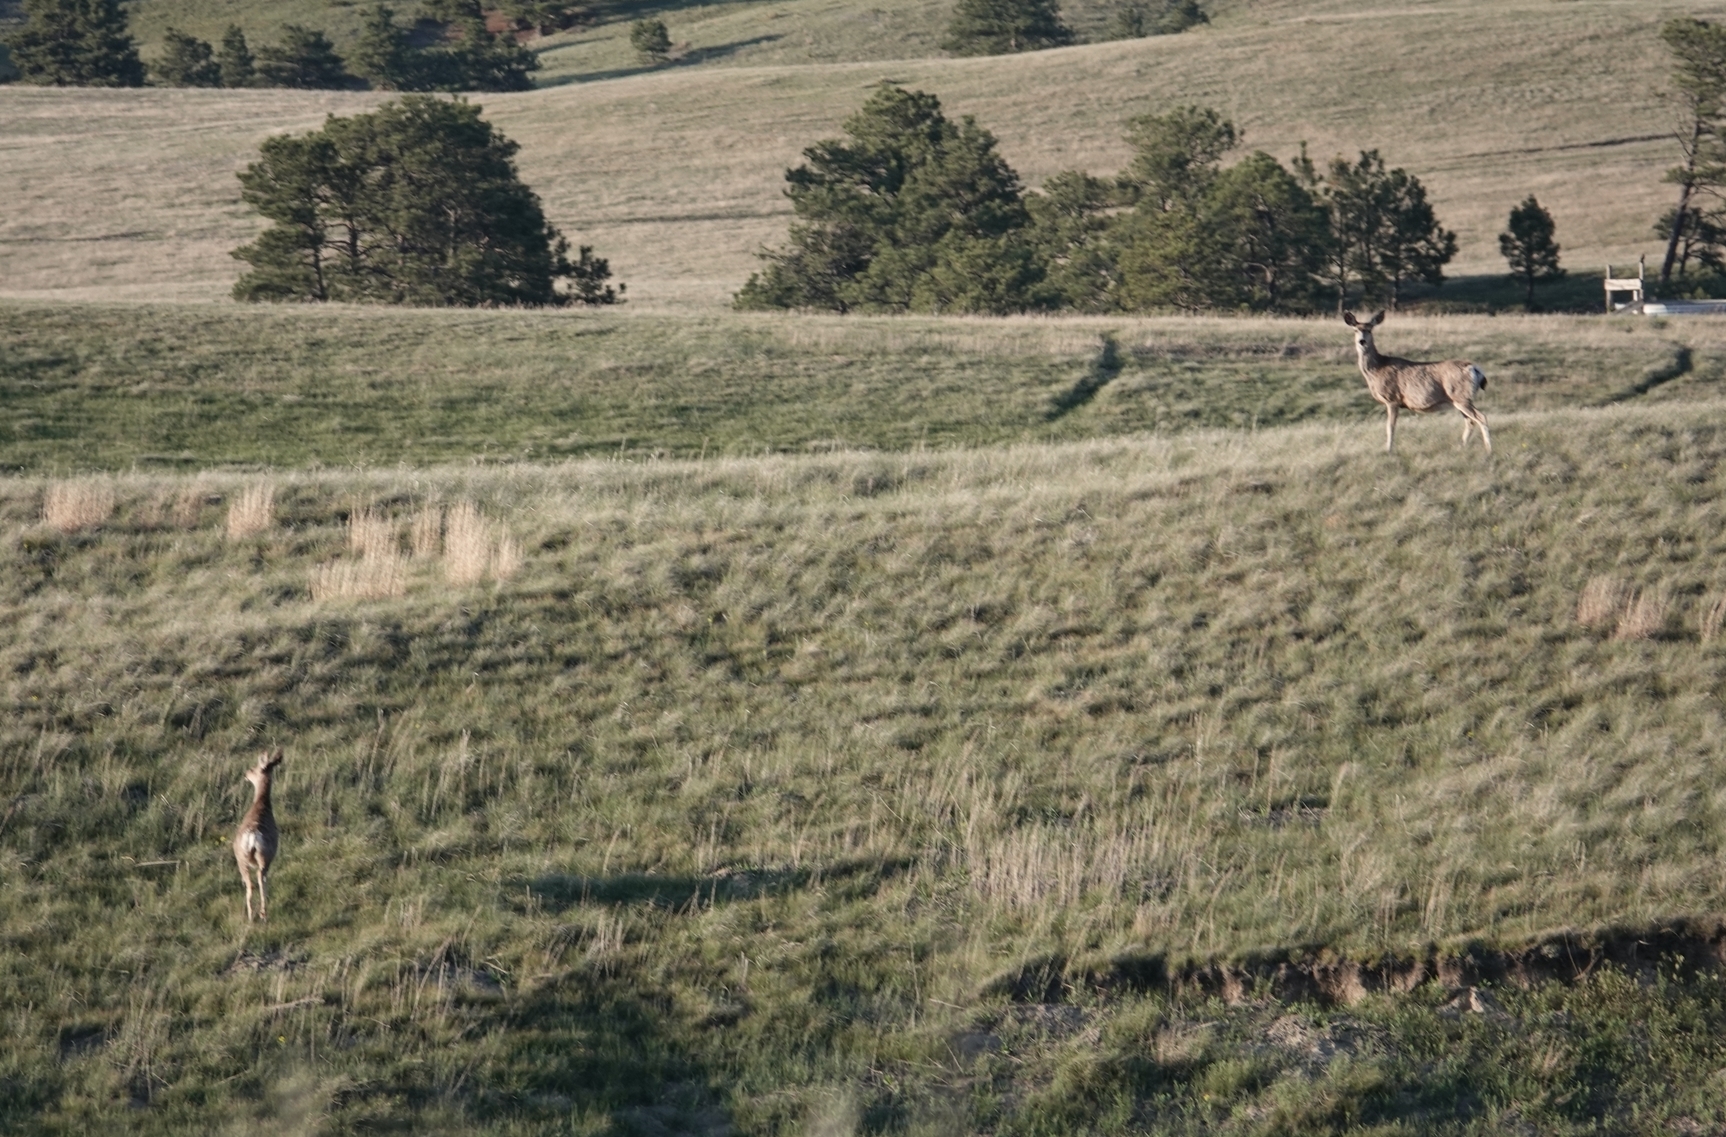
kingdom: Animalia
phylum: Chordata
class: Mammalia
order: Artiodactyla
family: Cervidae
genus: Odocoileus
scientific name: Odocoileus hemionus
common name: Mule deer
